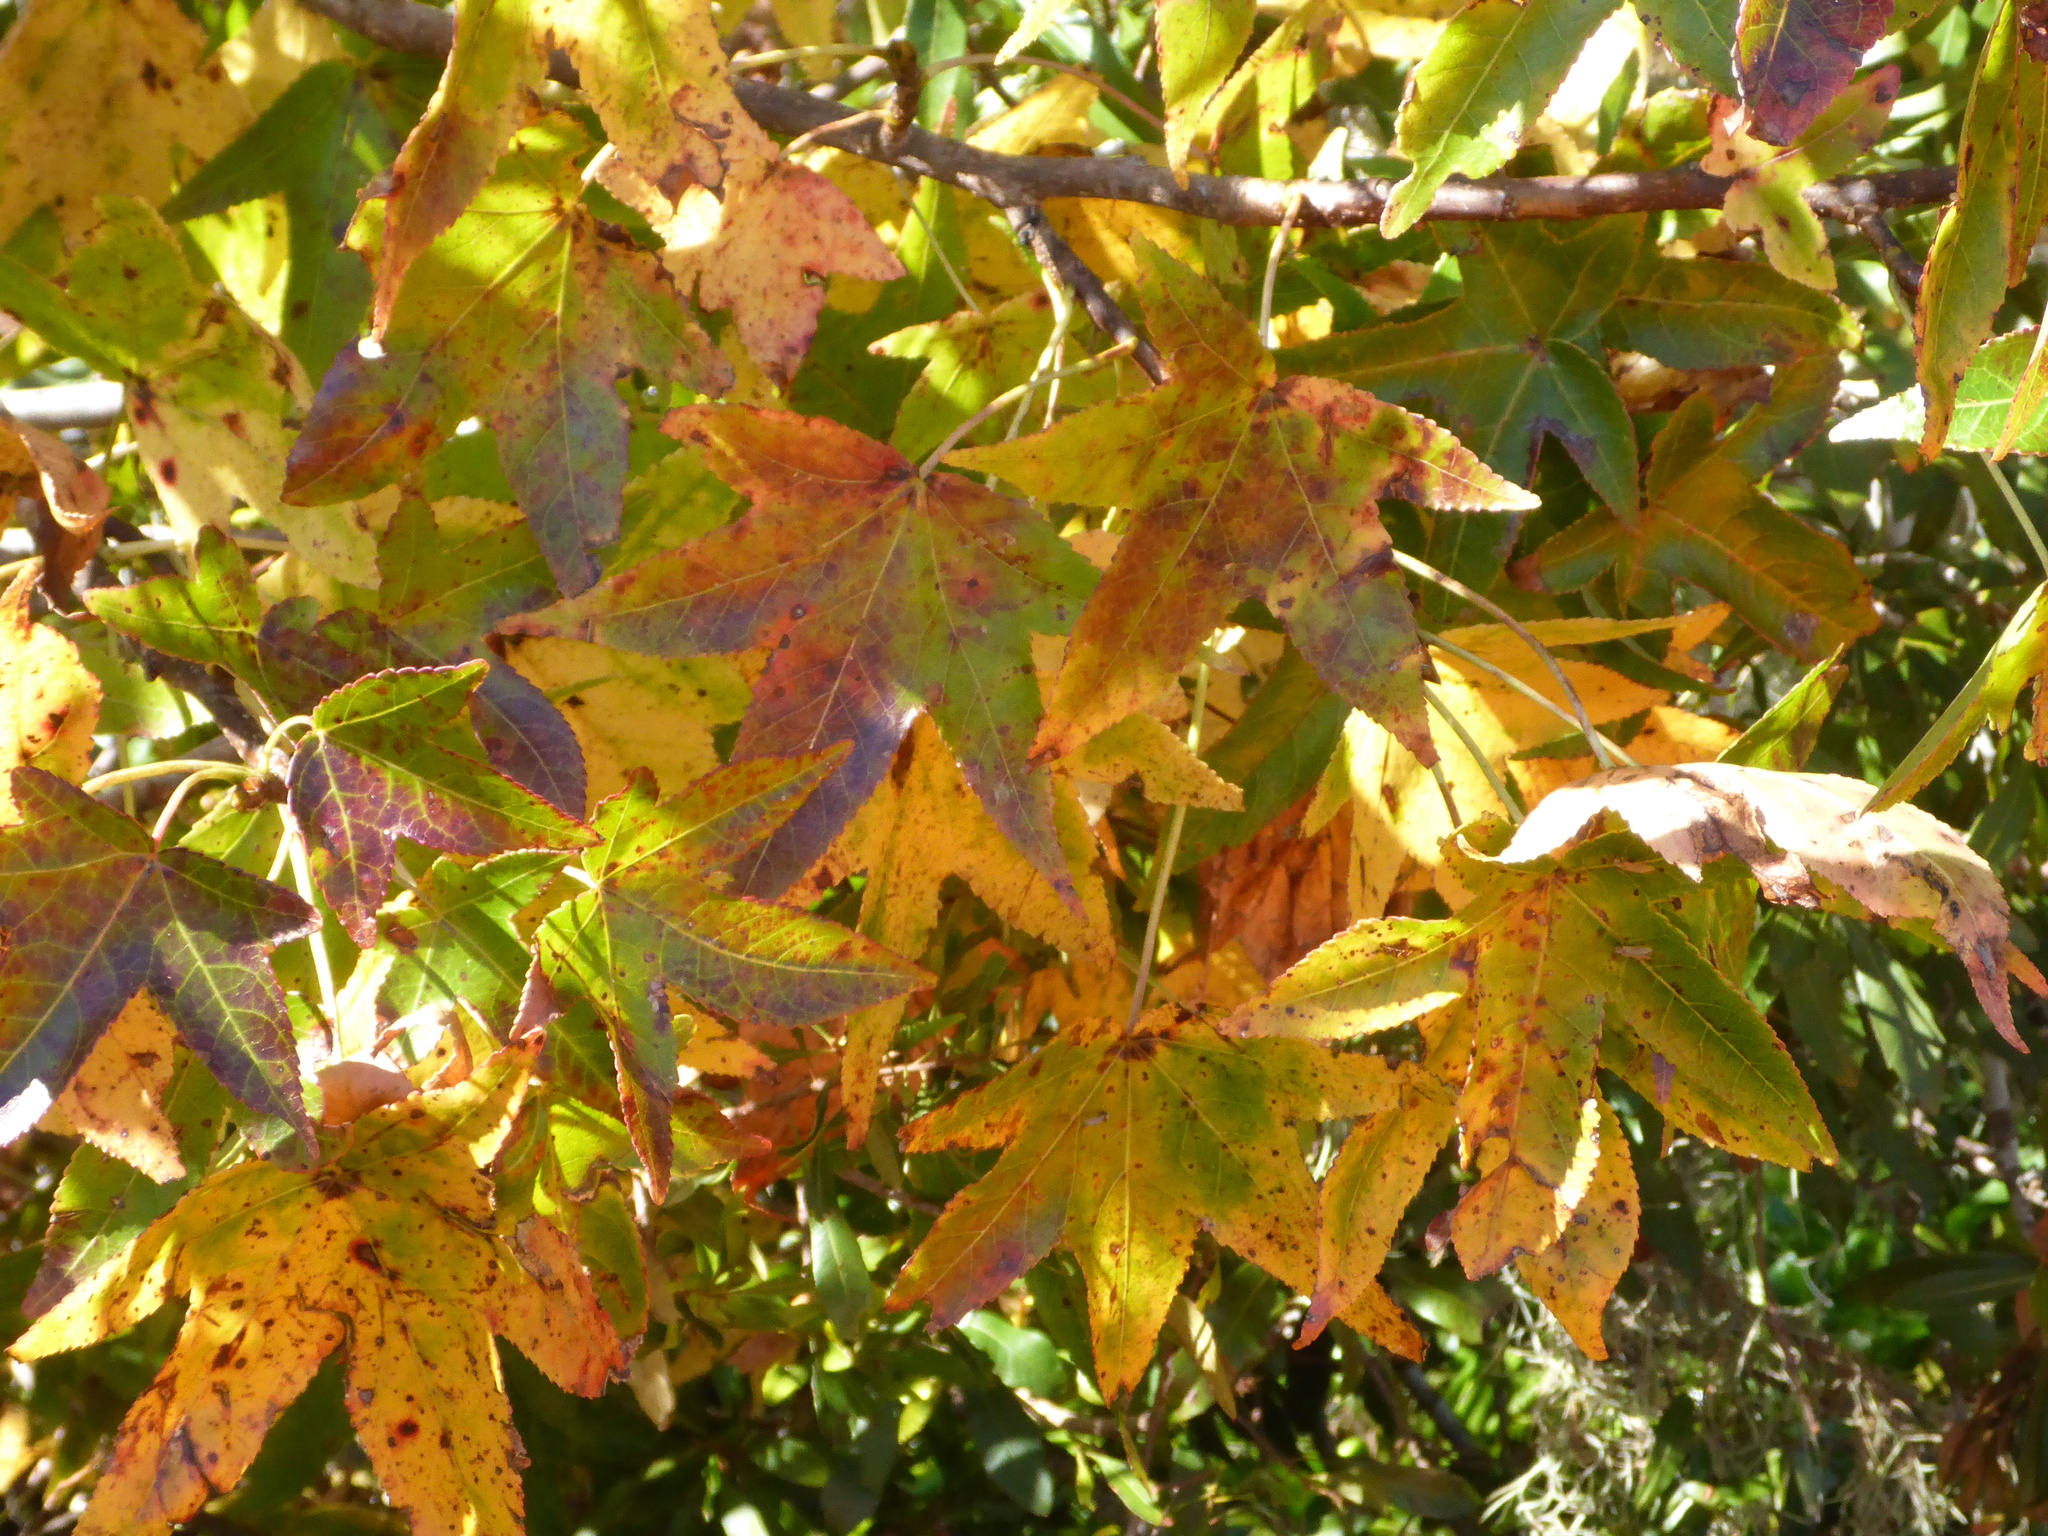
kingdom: Plantae
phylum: Tracheophyta
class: Magnoliopsida
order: Saxifragales
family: Altingiaceae
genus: Liquidambar
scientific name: Liquidambar styraciflua
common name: Sweet gum
